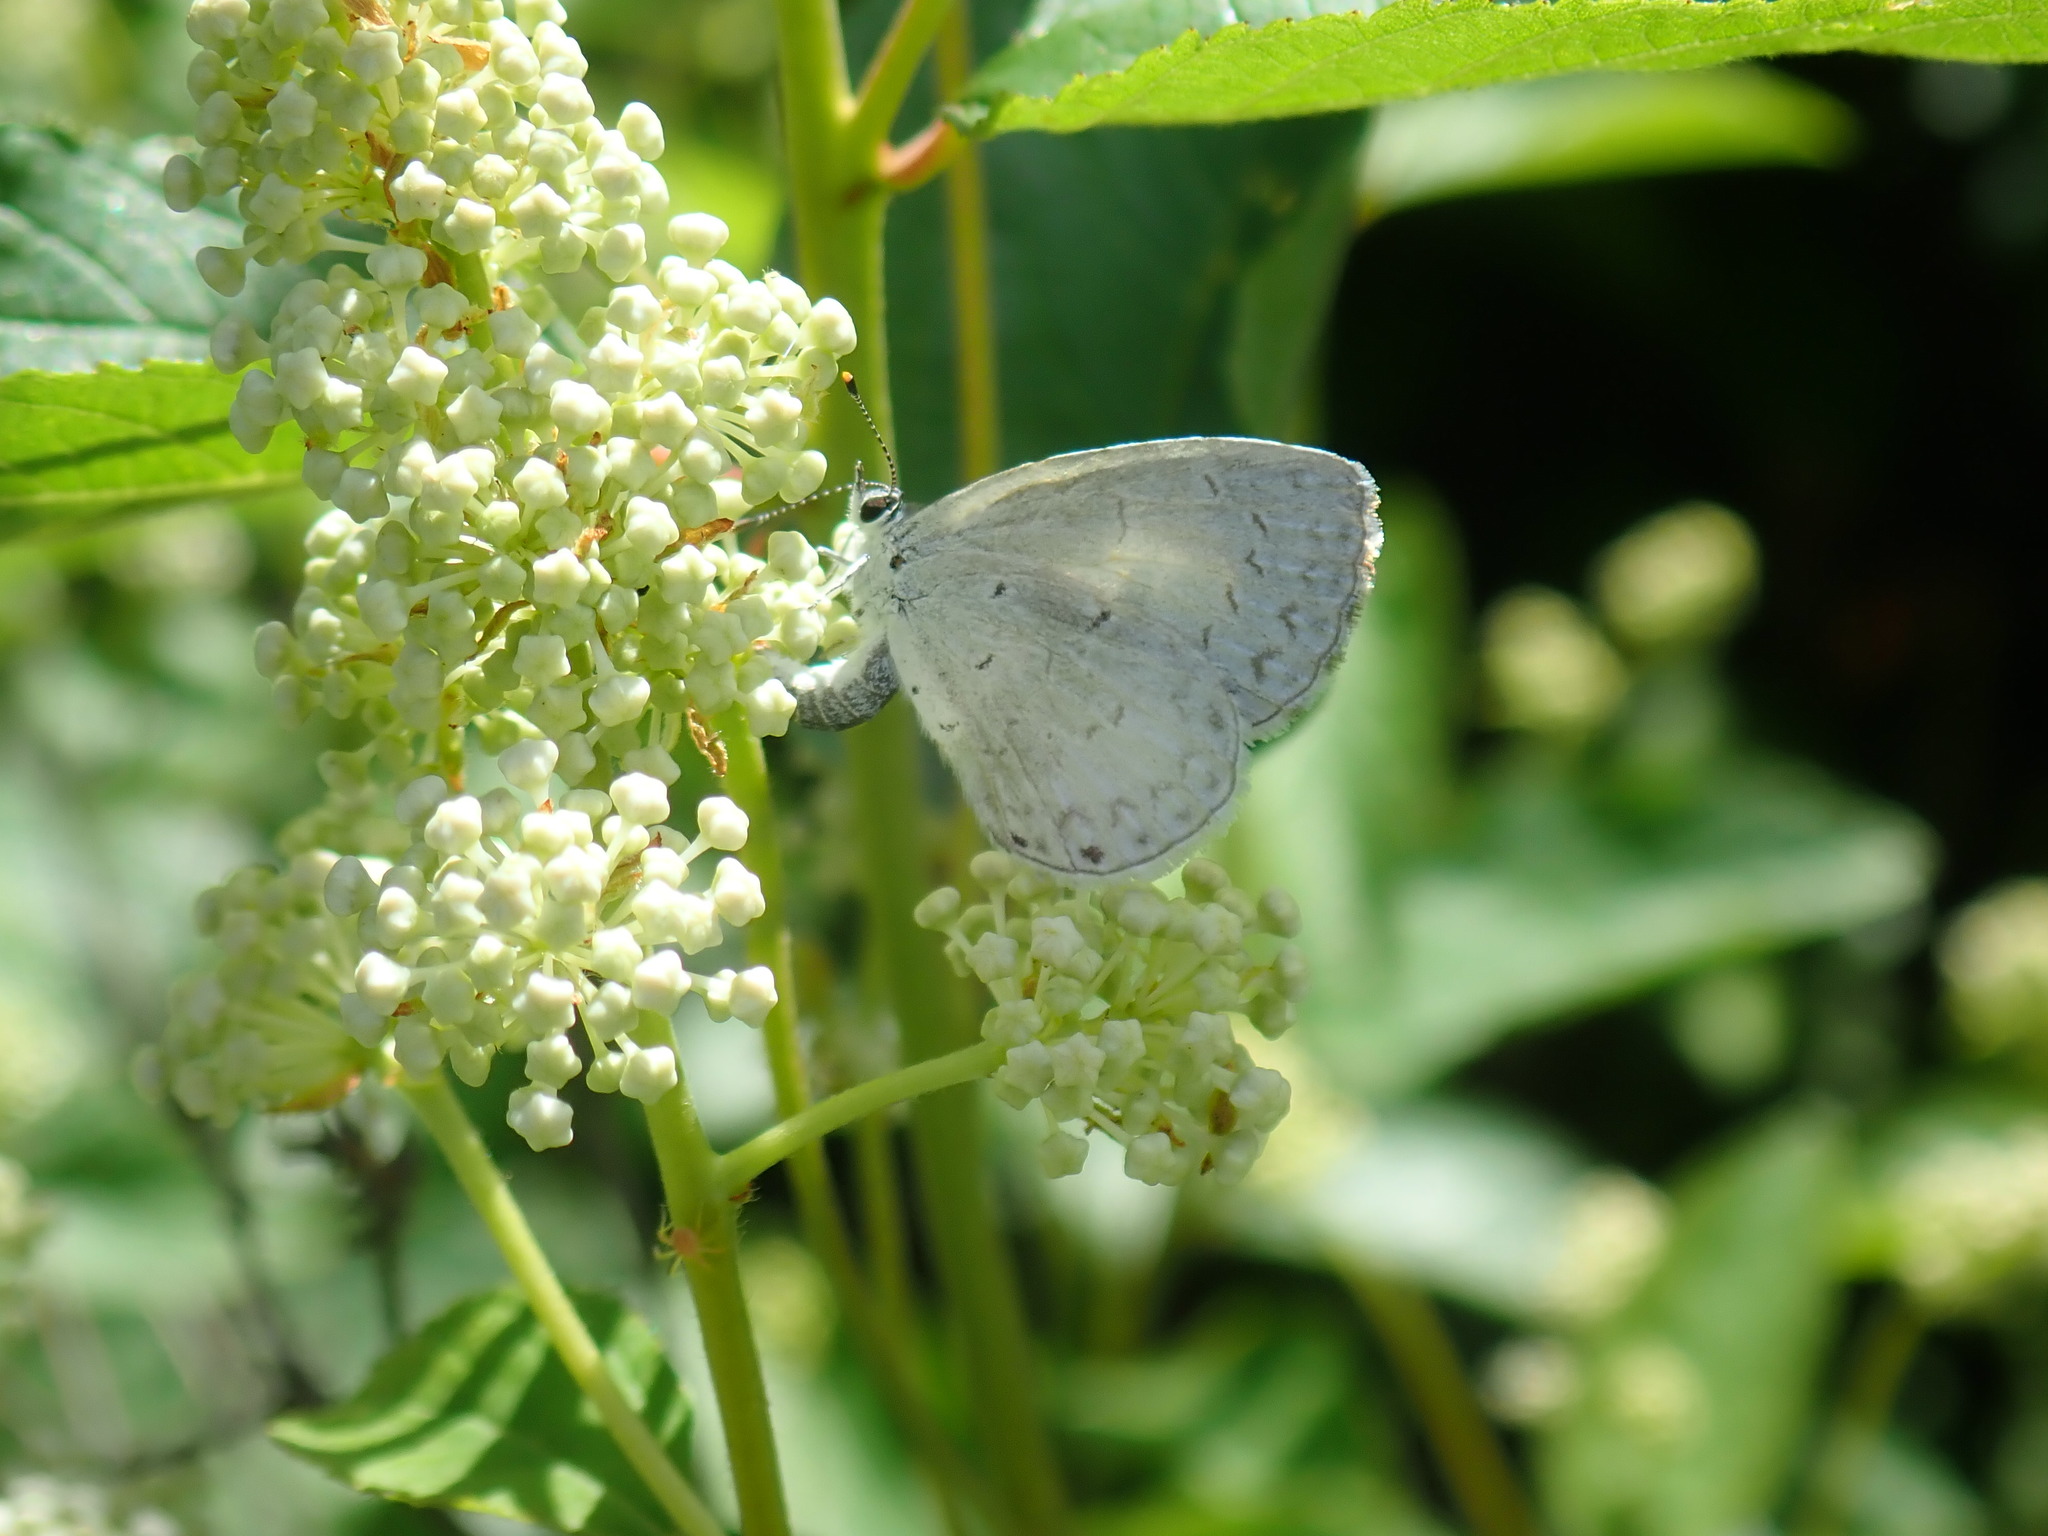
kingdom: Animalia
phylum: Arthropoda
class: Insecta
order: Lepidoptera
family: Lycaenidae
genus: Cyaniris
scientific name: Cyaniris neglecta
